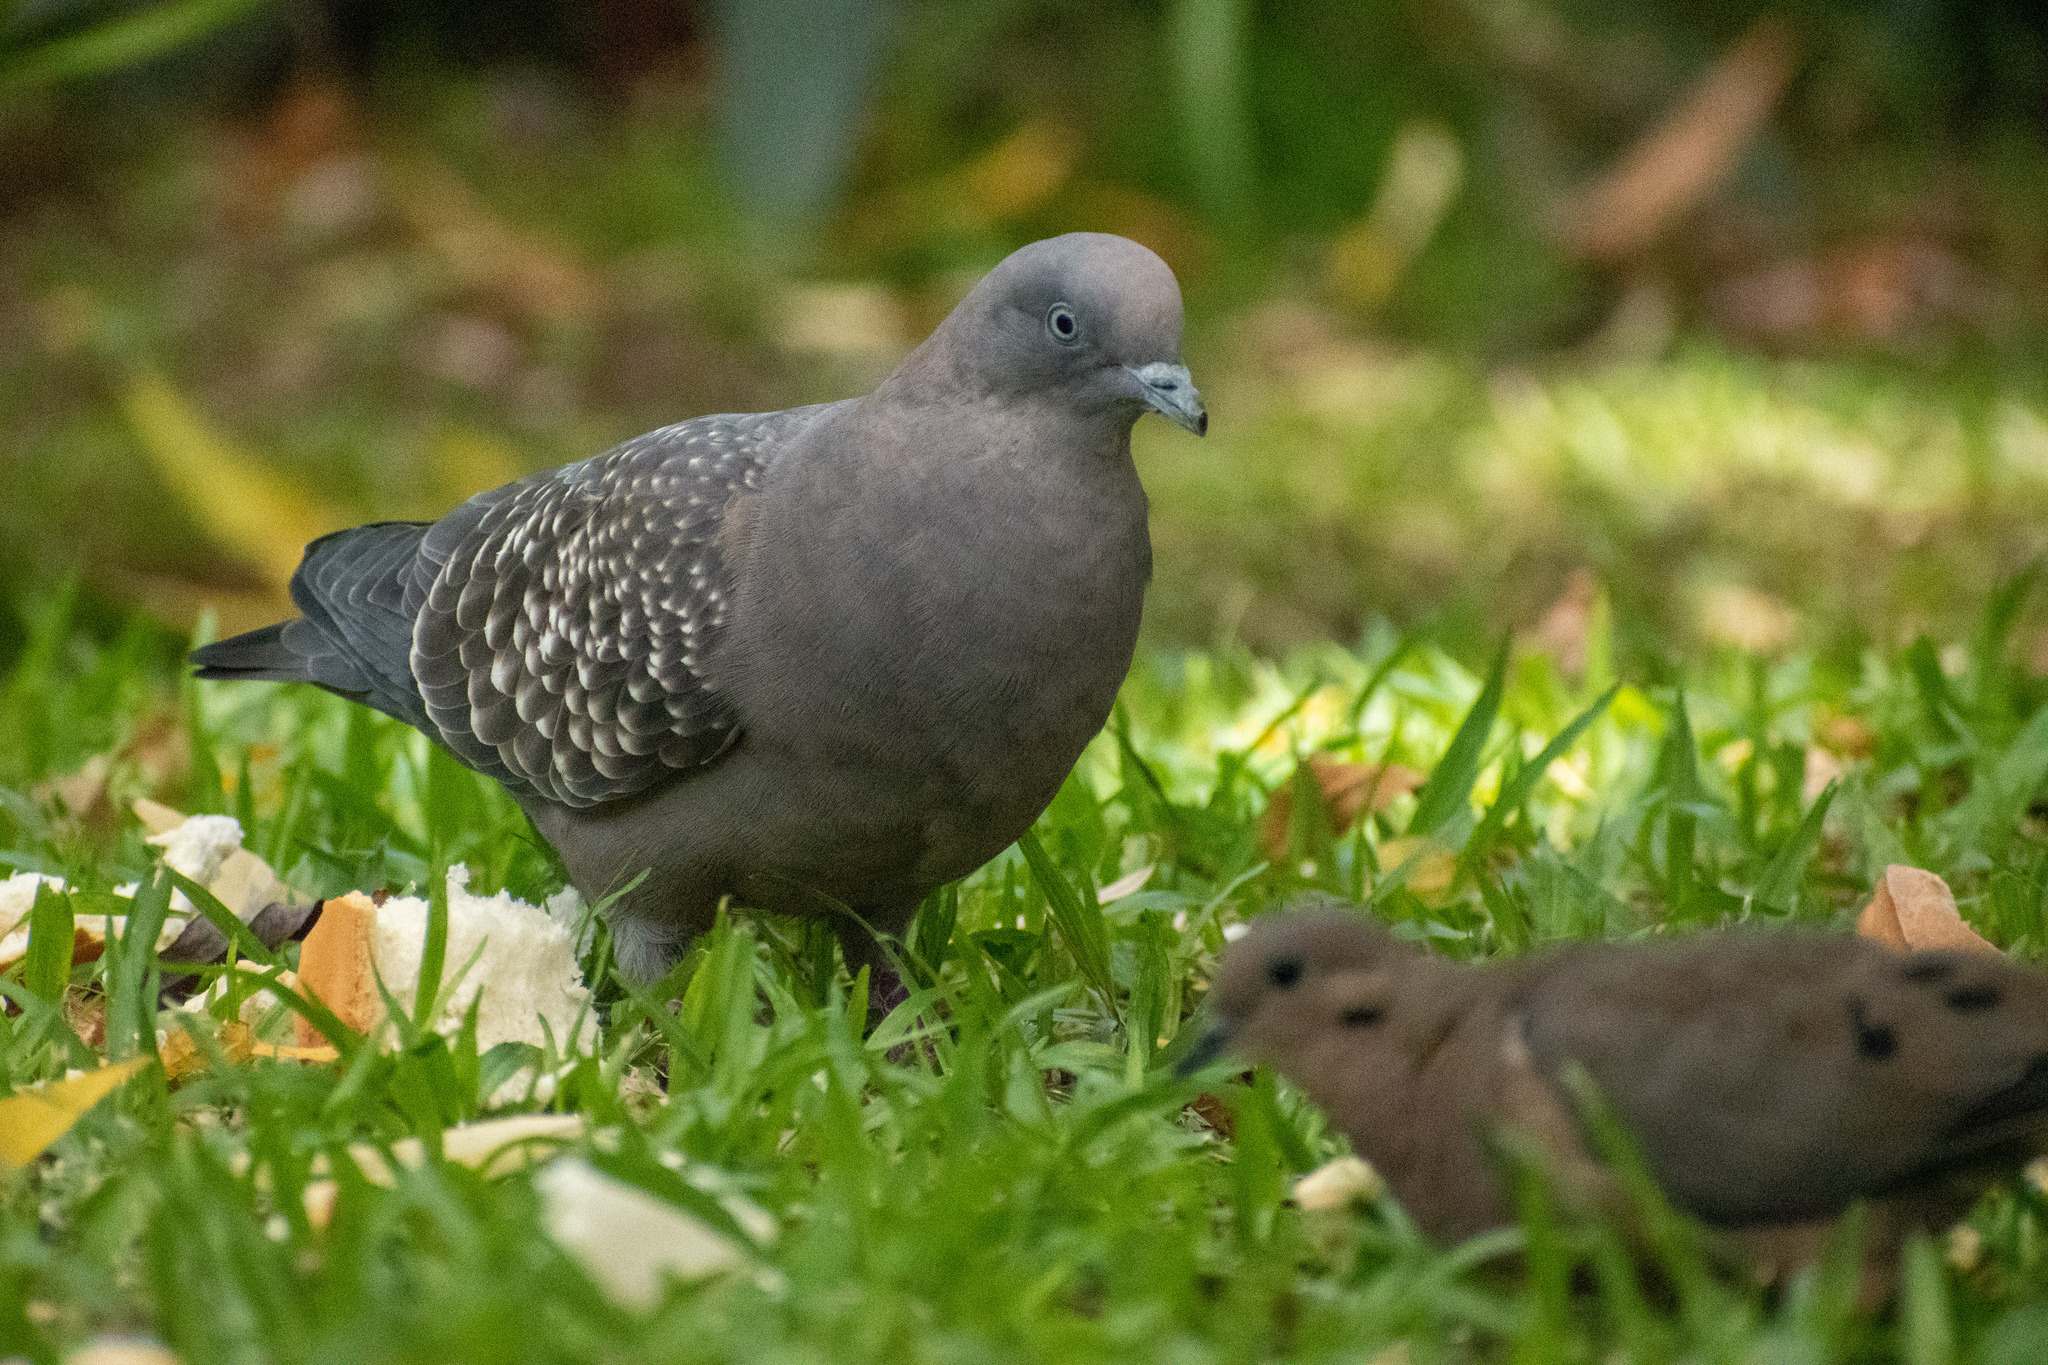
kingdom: Animalia
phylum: Chordata
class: Aves
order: Passeriformes
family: Thraupidae
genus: Thraupis
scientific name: Thraupis sayaca
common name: Sayaca tanager
